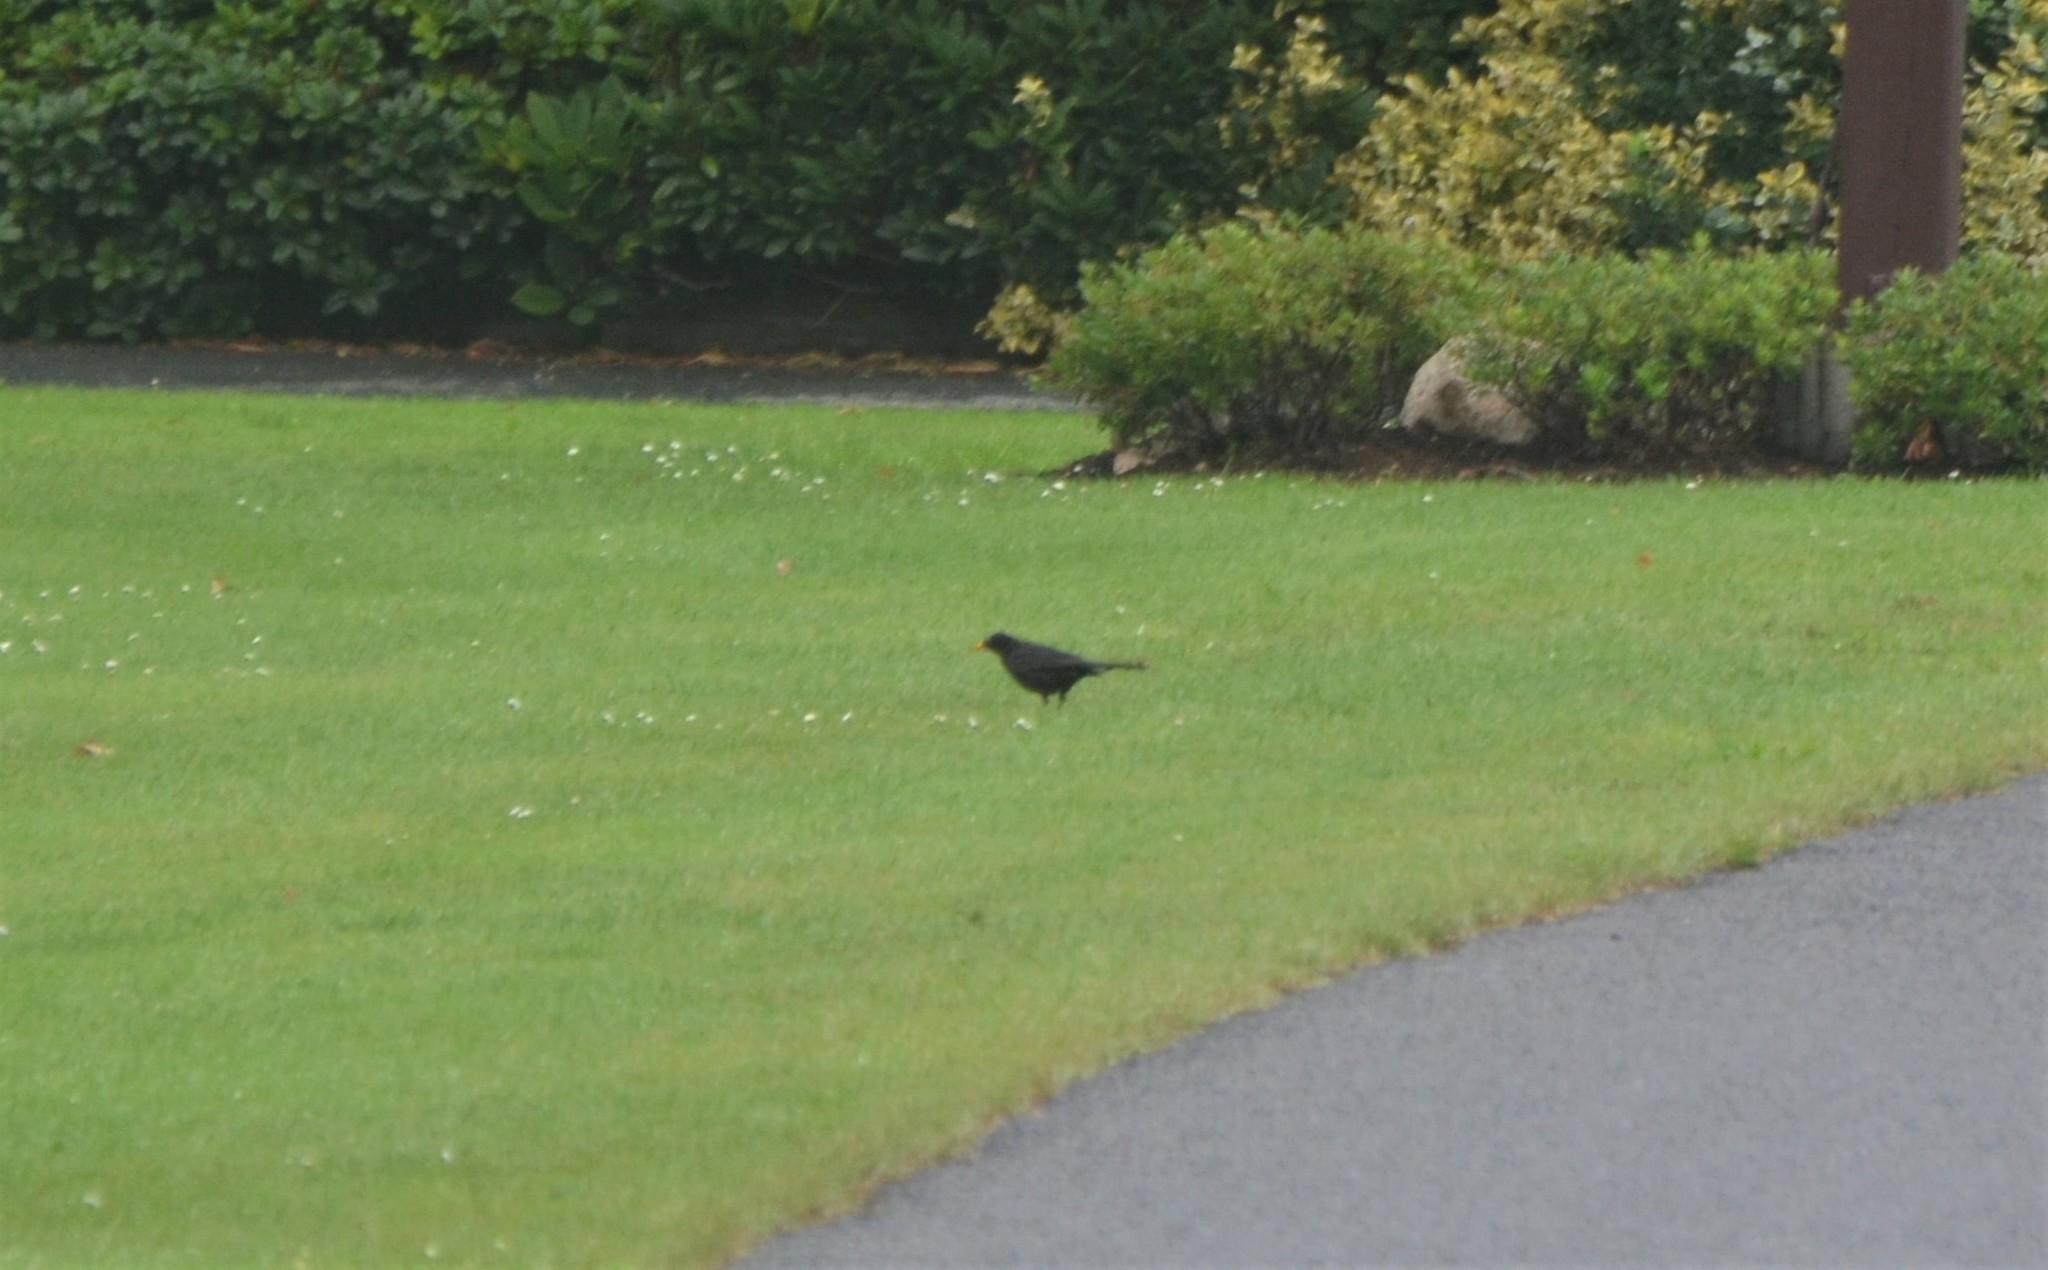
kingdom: Animalia
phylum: Chordata
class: Aves
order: Passeriformes
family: Turdidae
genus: Turdus
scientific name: Turdus merula
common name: Common blackbird
